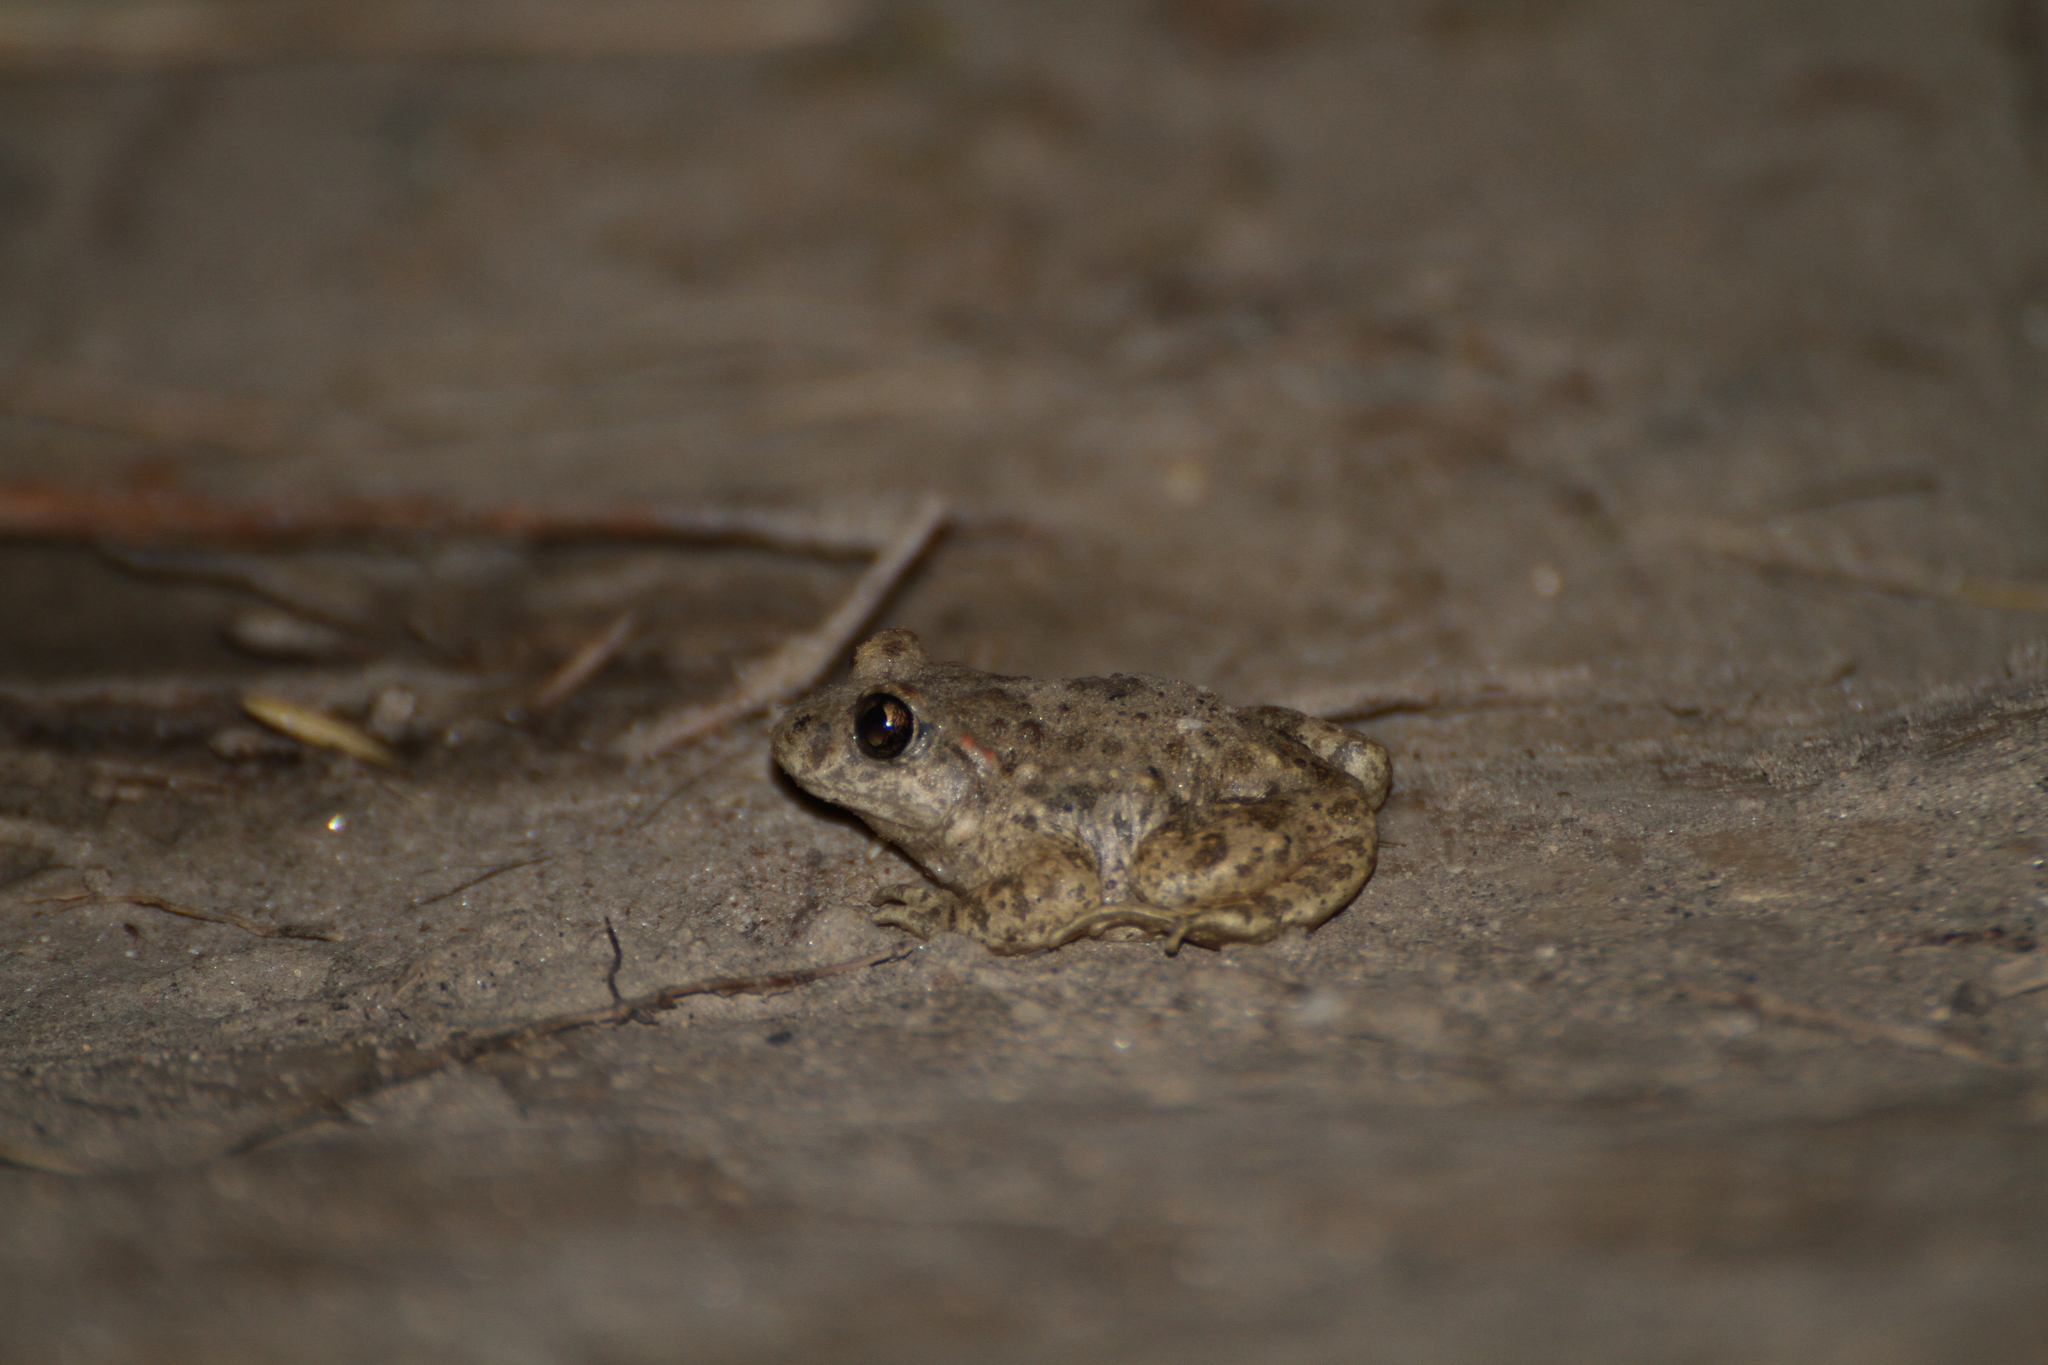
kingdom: Animalia
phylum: Chordata
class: Amphibia
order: Anura
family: Alytidae
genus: Alytes
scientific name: Alytes obstetricans
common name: Midwife toad
